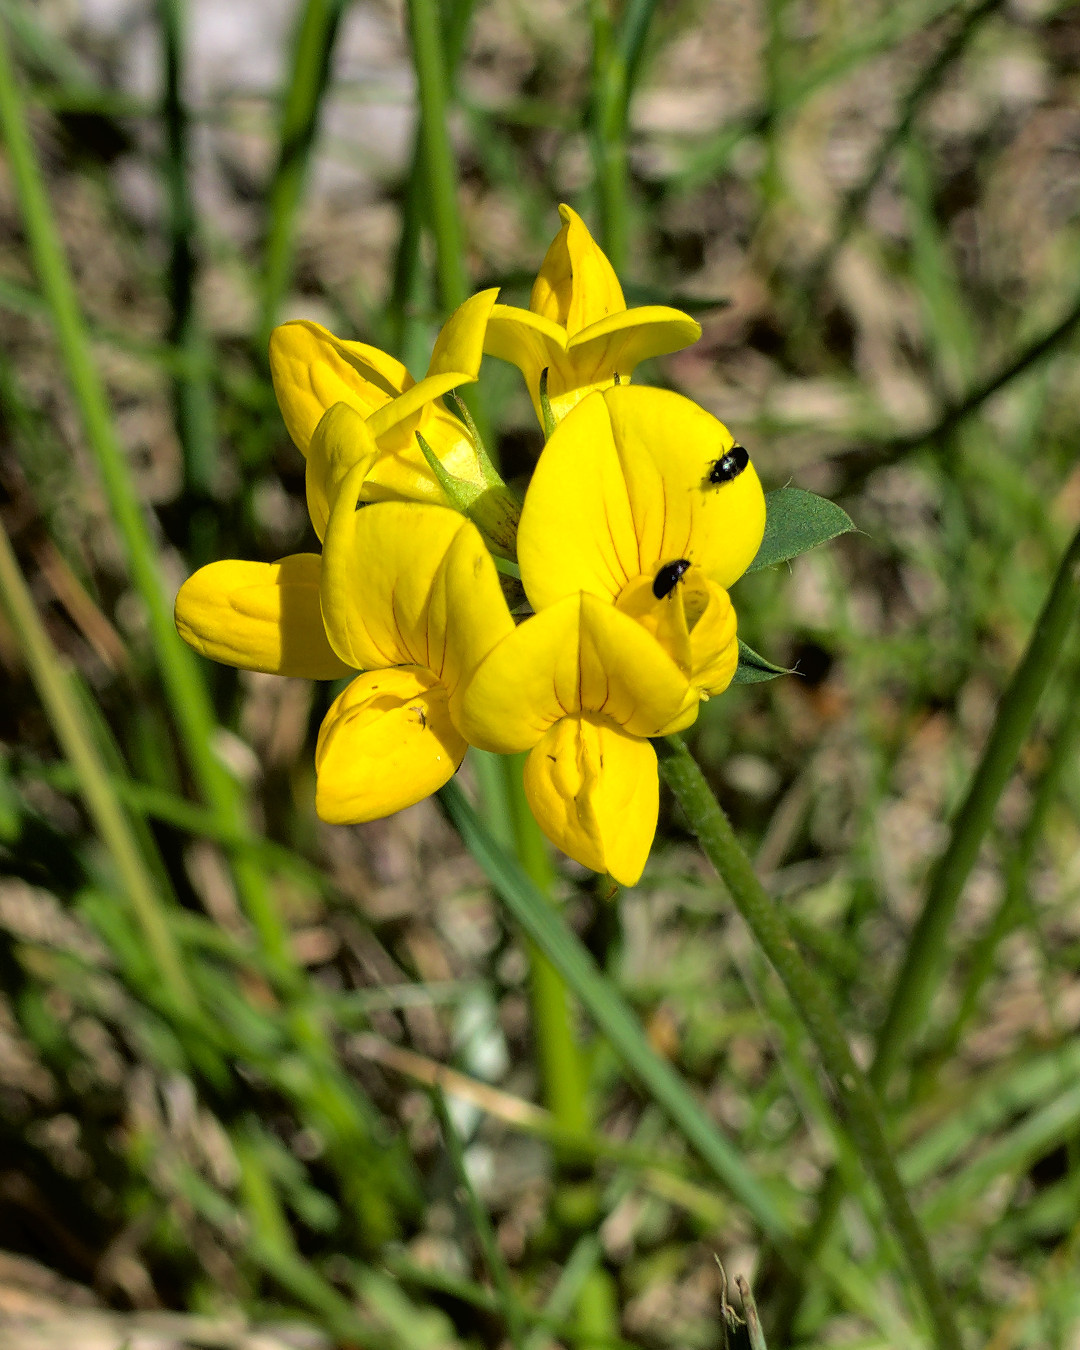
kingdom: Plantae
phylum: Tracheophyta
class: Magnoliopsida
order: Fabales
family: Fabaceae
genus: Lotus
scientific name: Lotus corniculatus
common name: Common bird's-foot-trefoil
